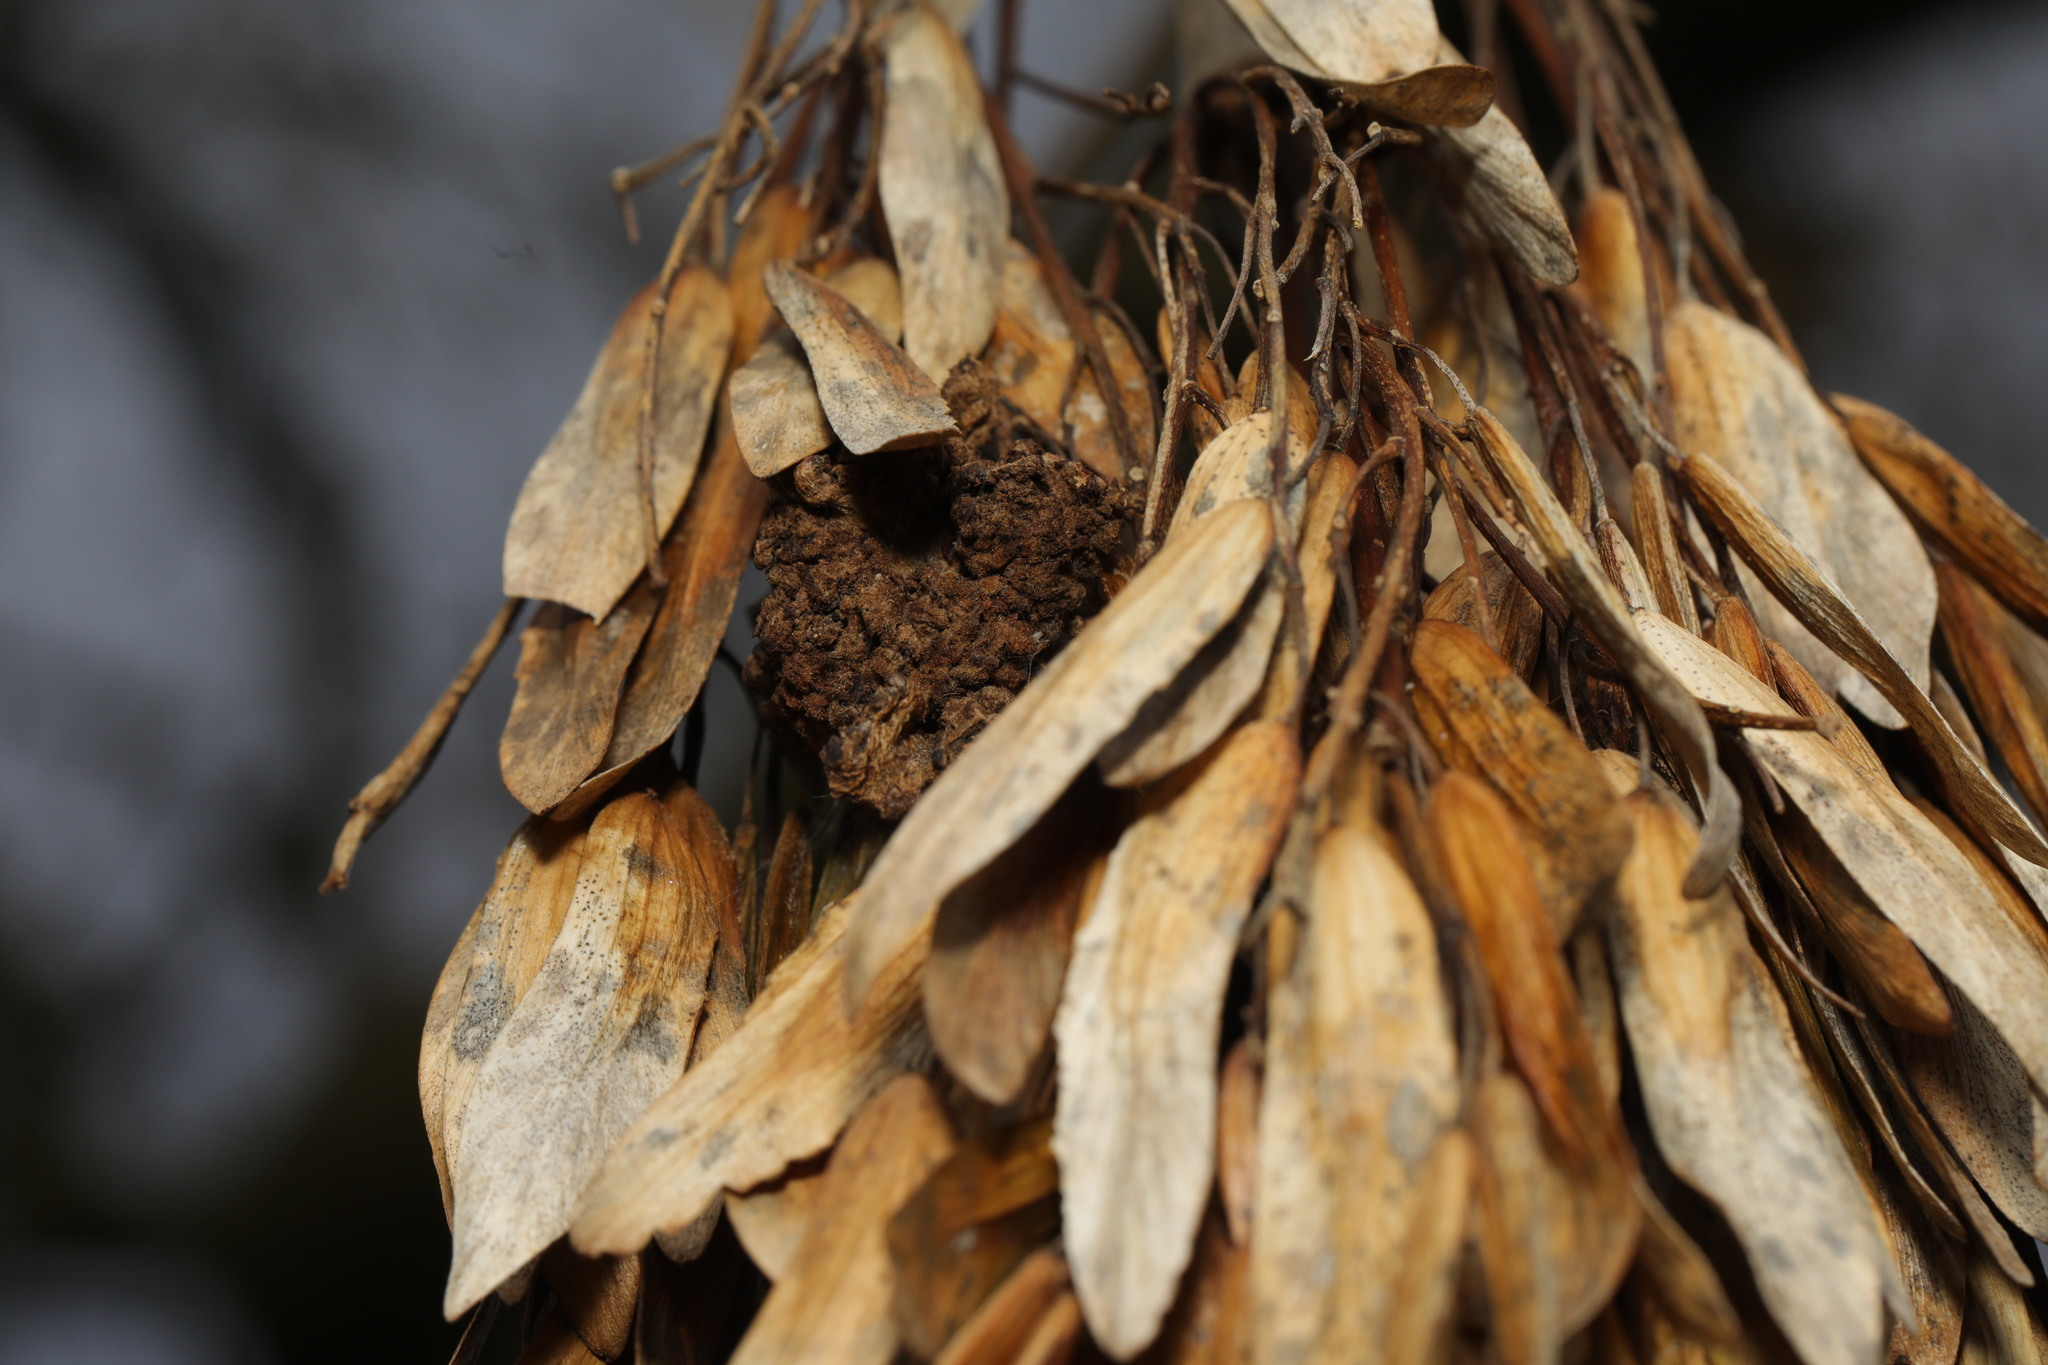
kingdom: Animalia
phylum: Arthropoda
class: Arachnida
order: Trombidiformes
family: Eriophyidae
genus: Aceria
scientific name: Aceria fraxinivora
